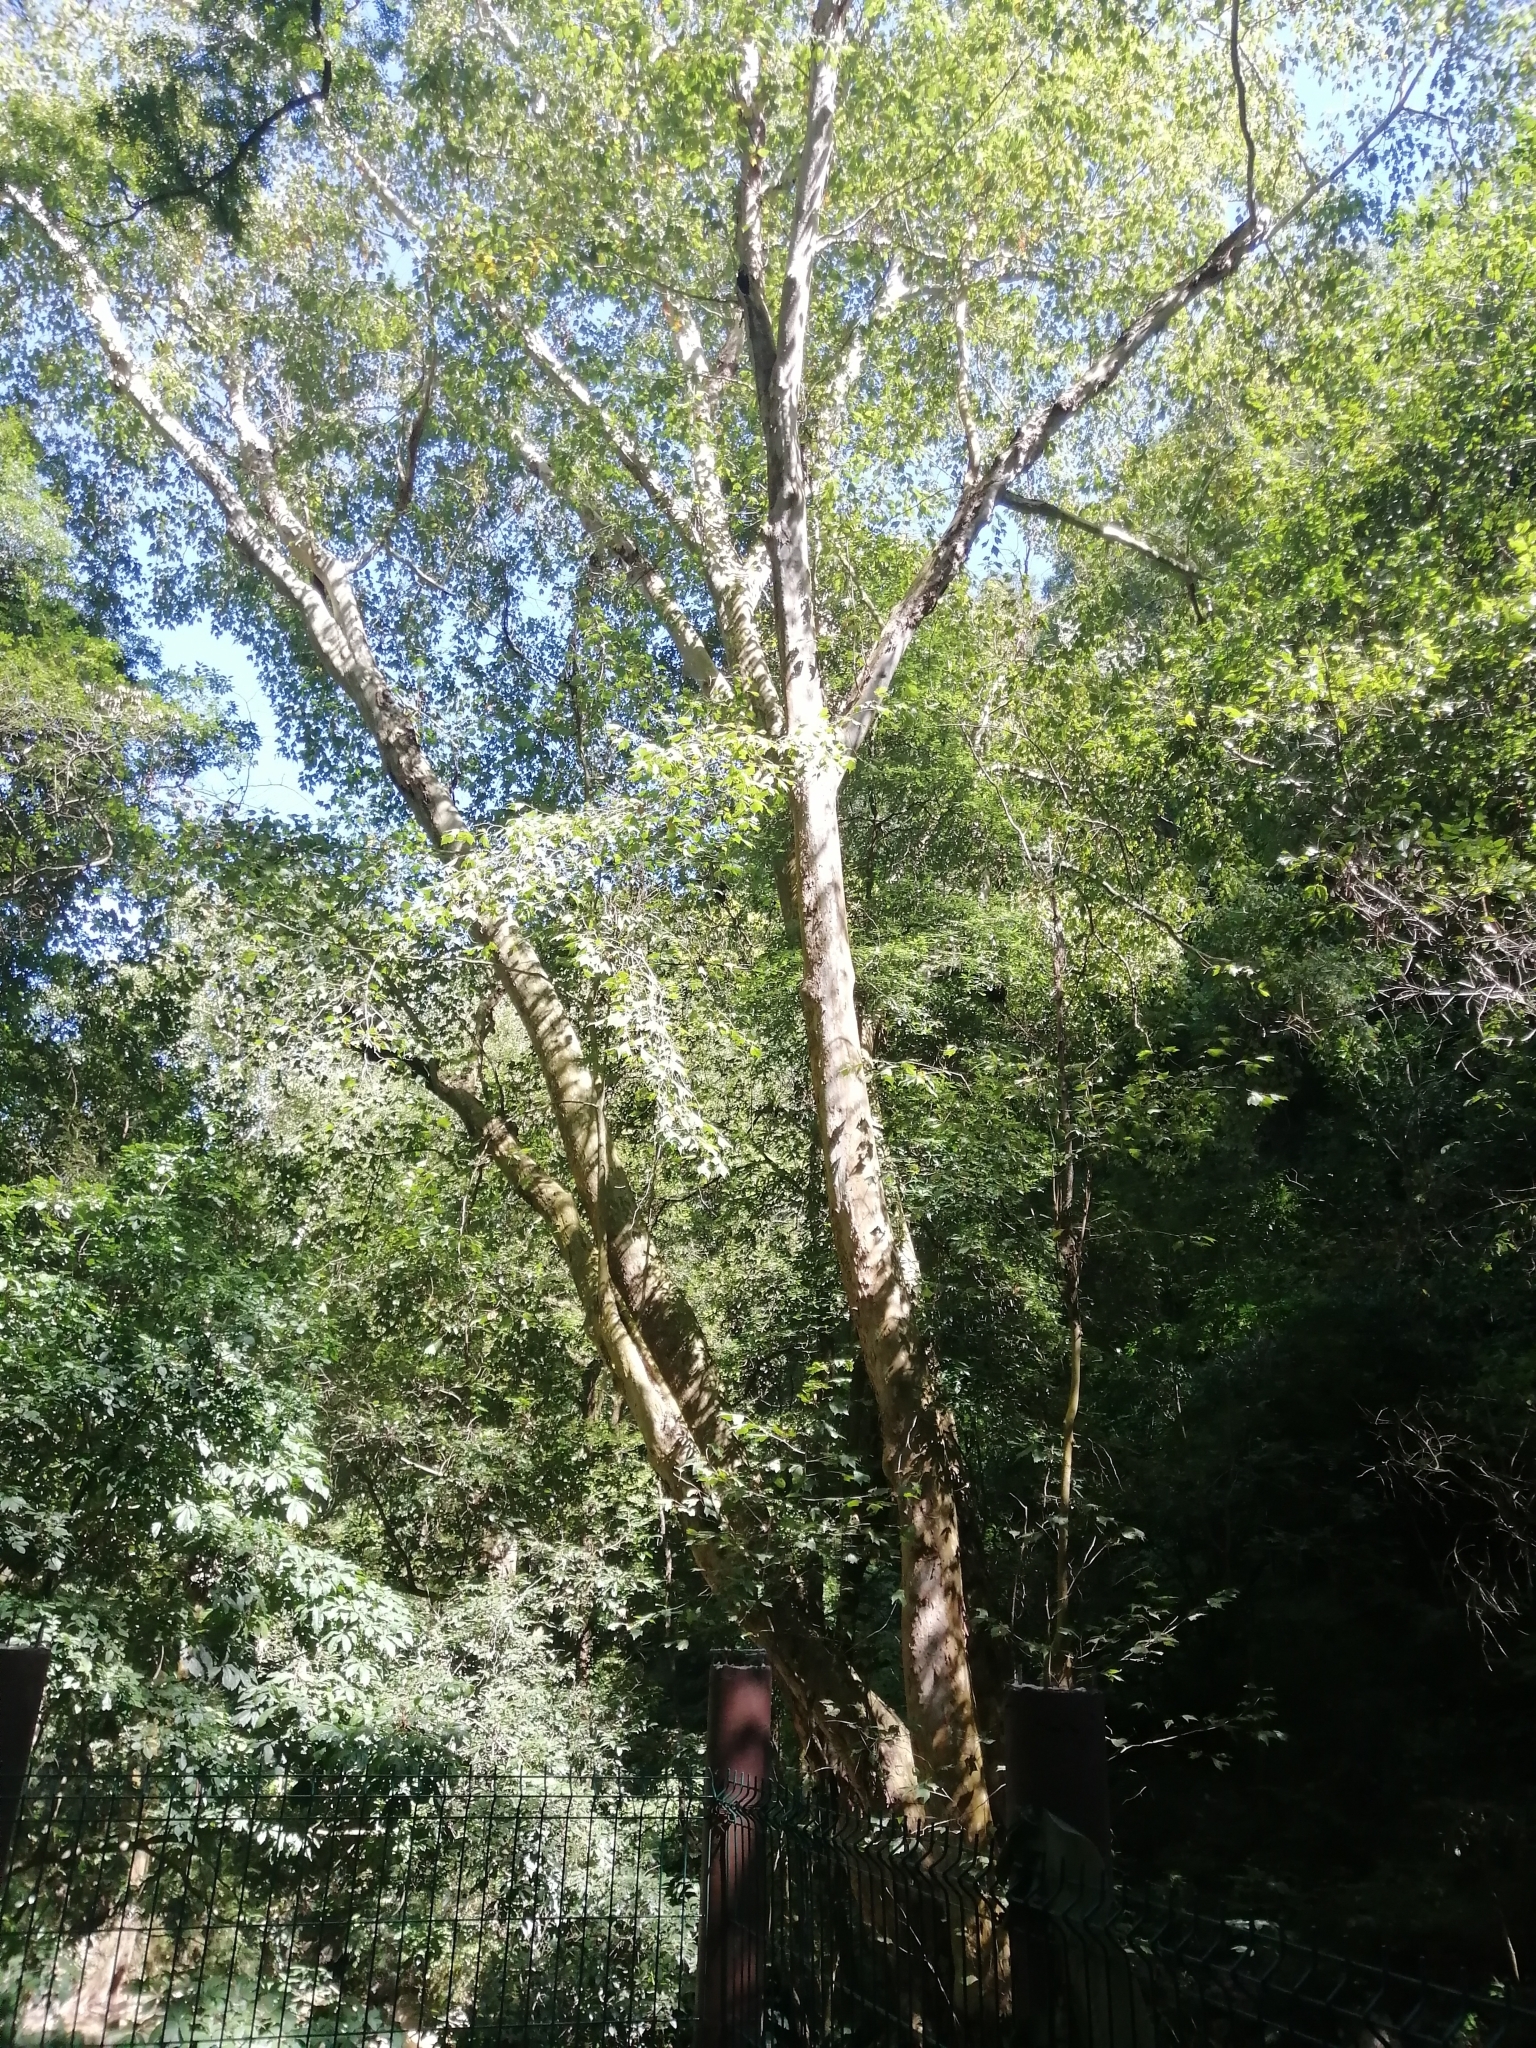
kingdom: Plantae
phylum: Tracheophyta
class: Magnoliopsida
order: Proteales
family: Platanaceae
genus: Platanus
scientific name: Platanus mexicana
